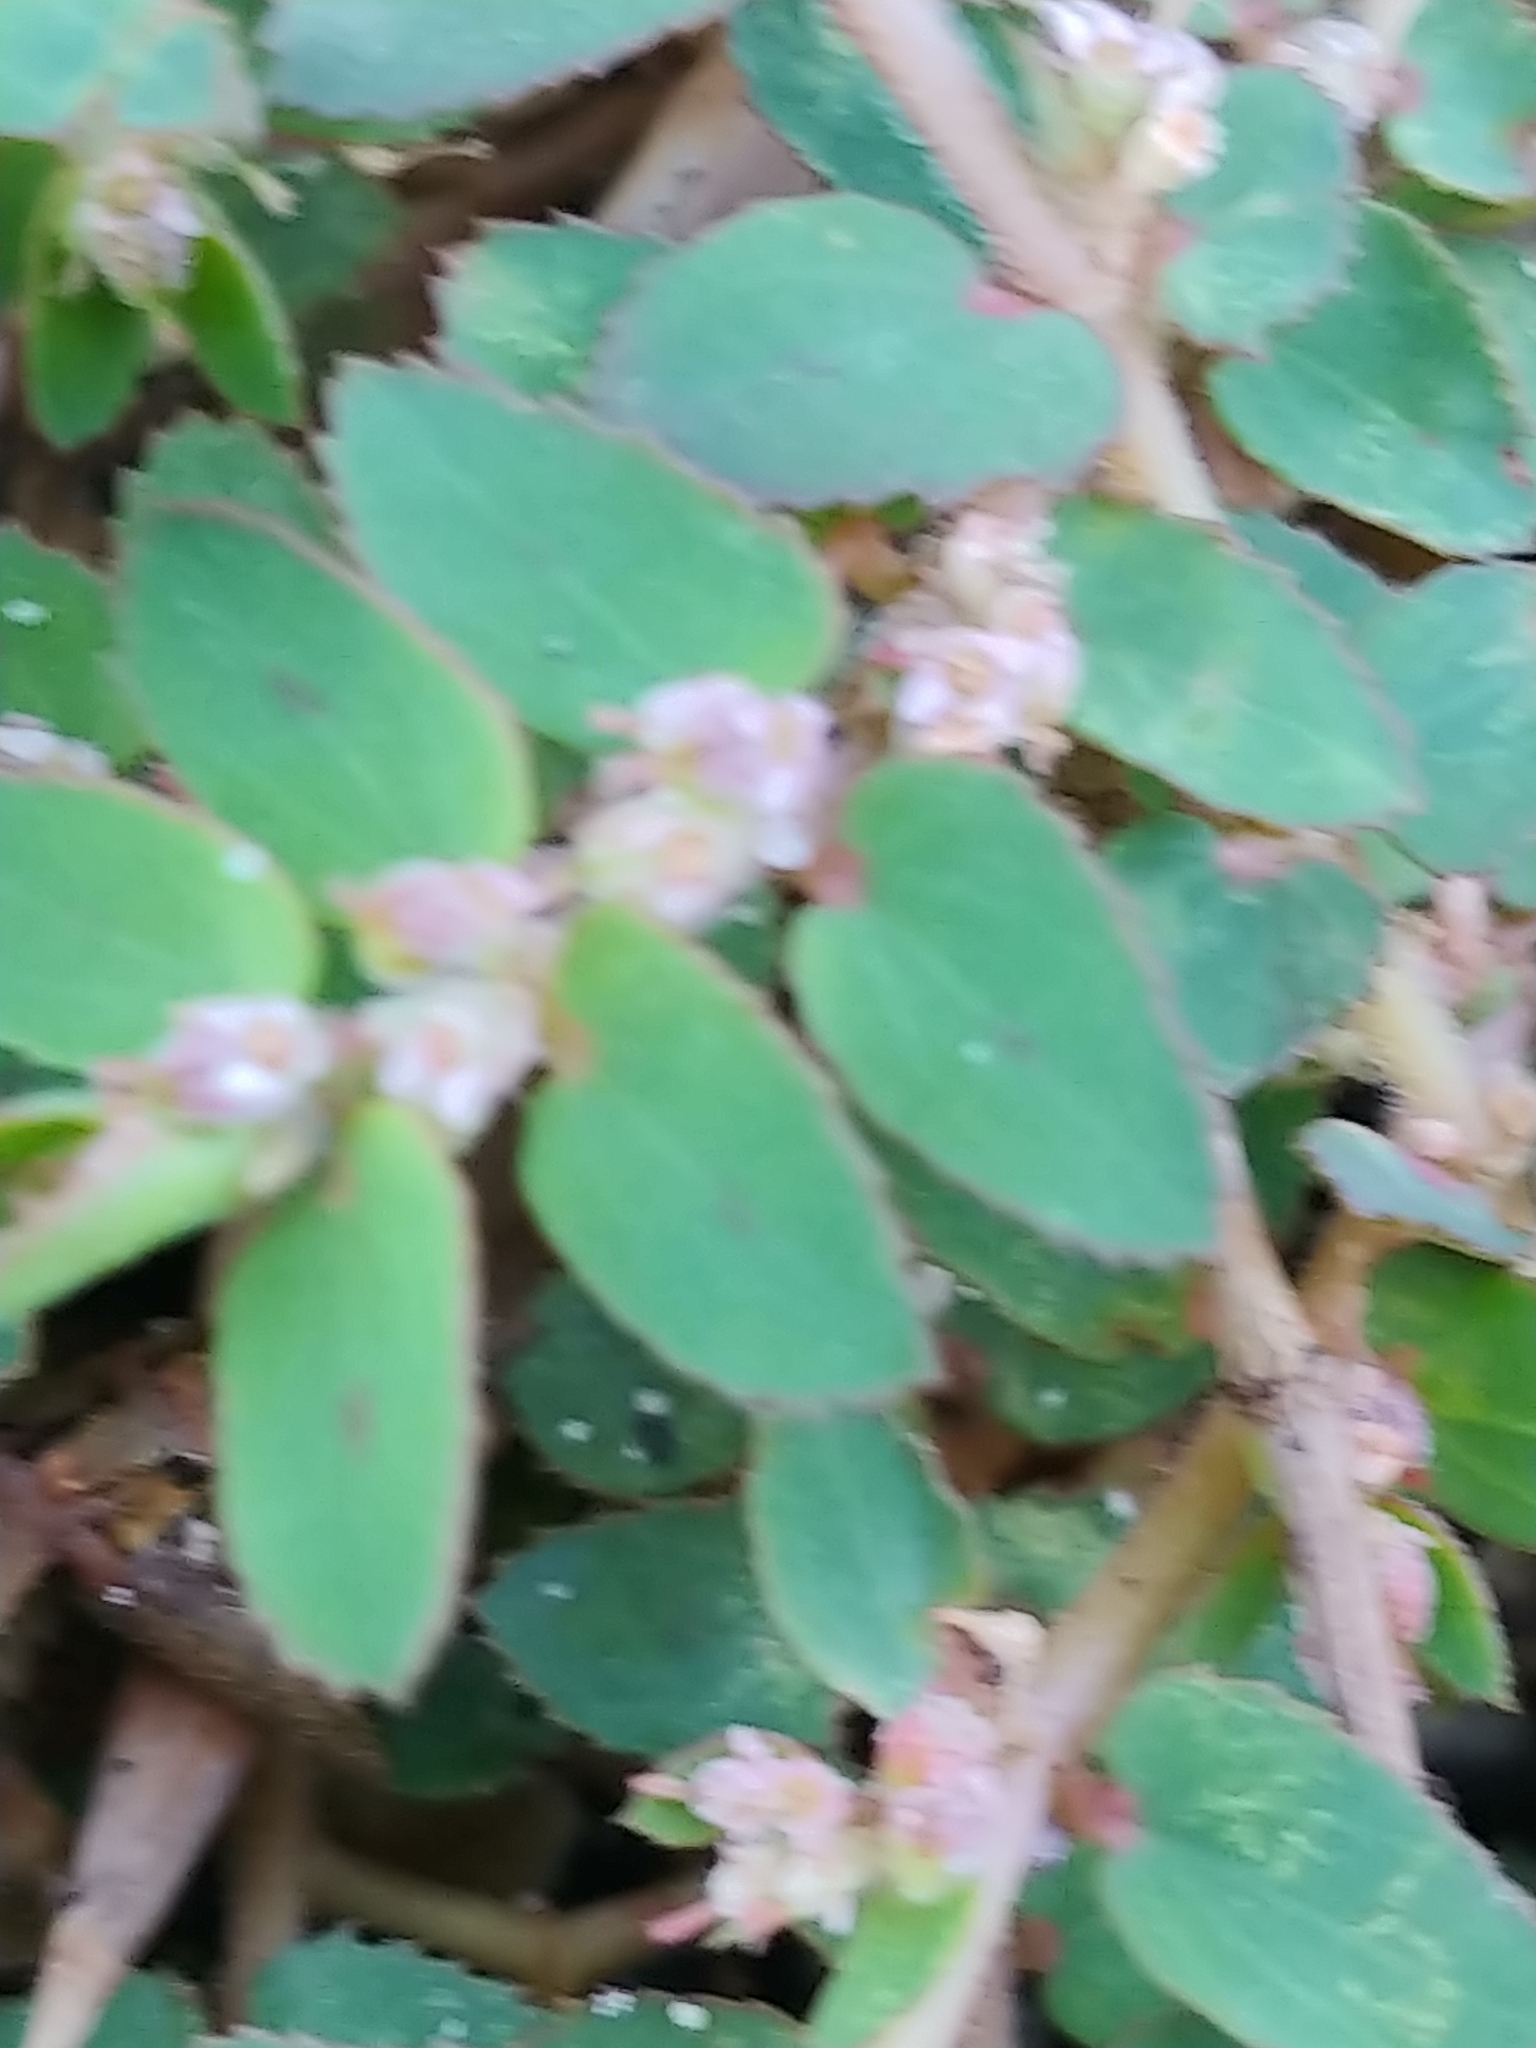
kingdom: Plantae
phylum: Tracheophyta
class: Magnoliopsida
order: Malpighiales
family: Euphorbiaceae
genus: Euphorbia
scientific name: Euphorbia thymifolia
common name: Gulf sandmat
